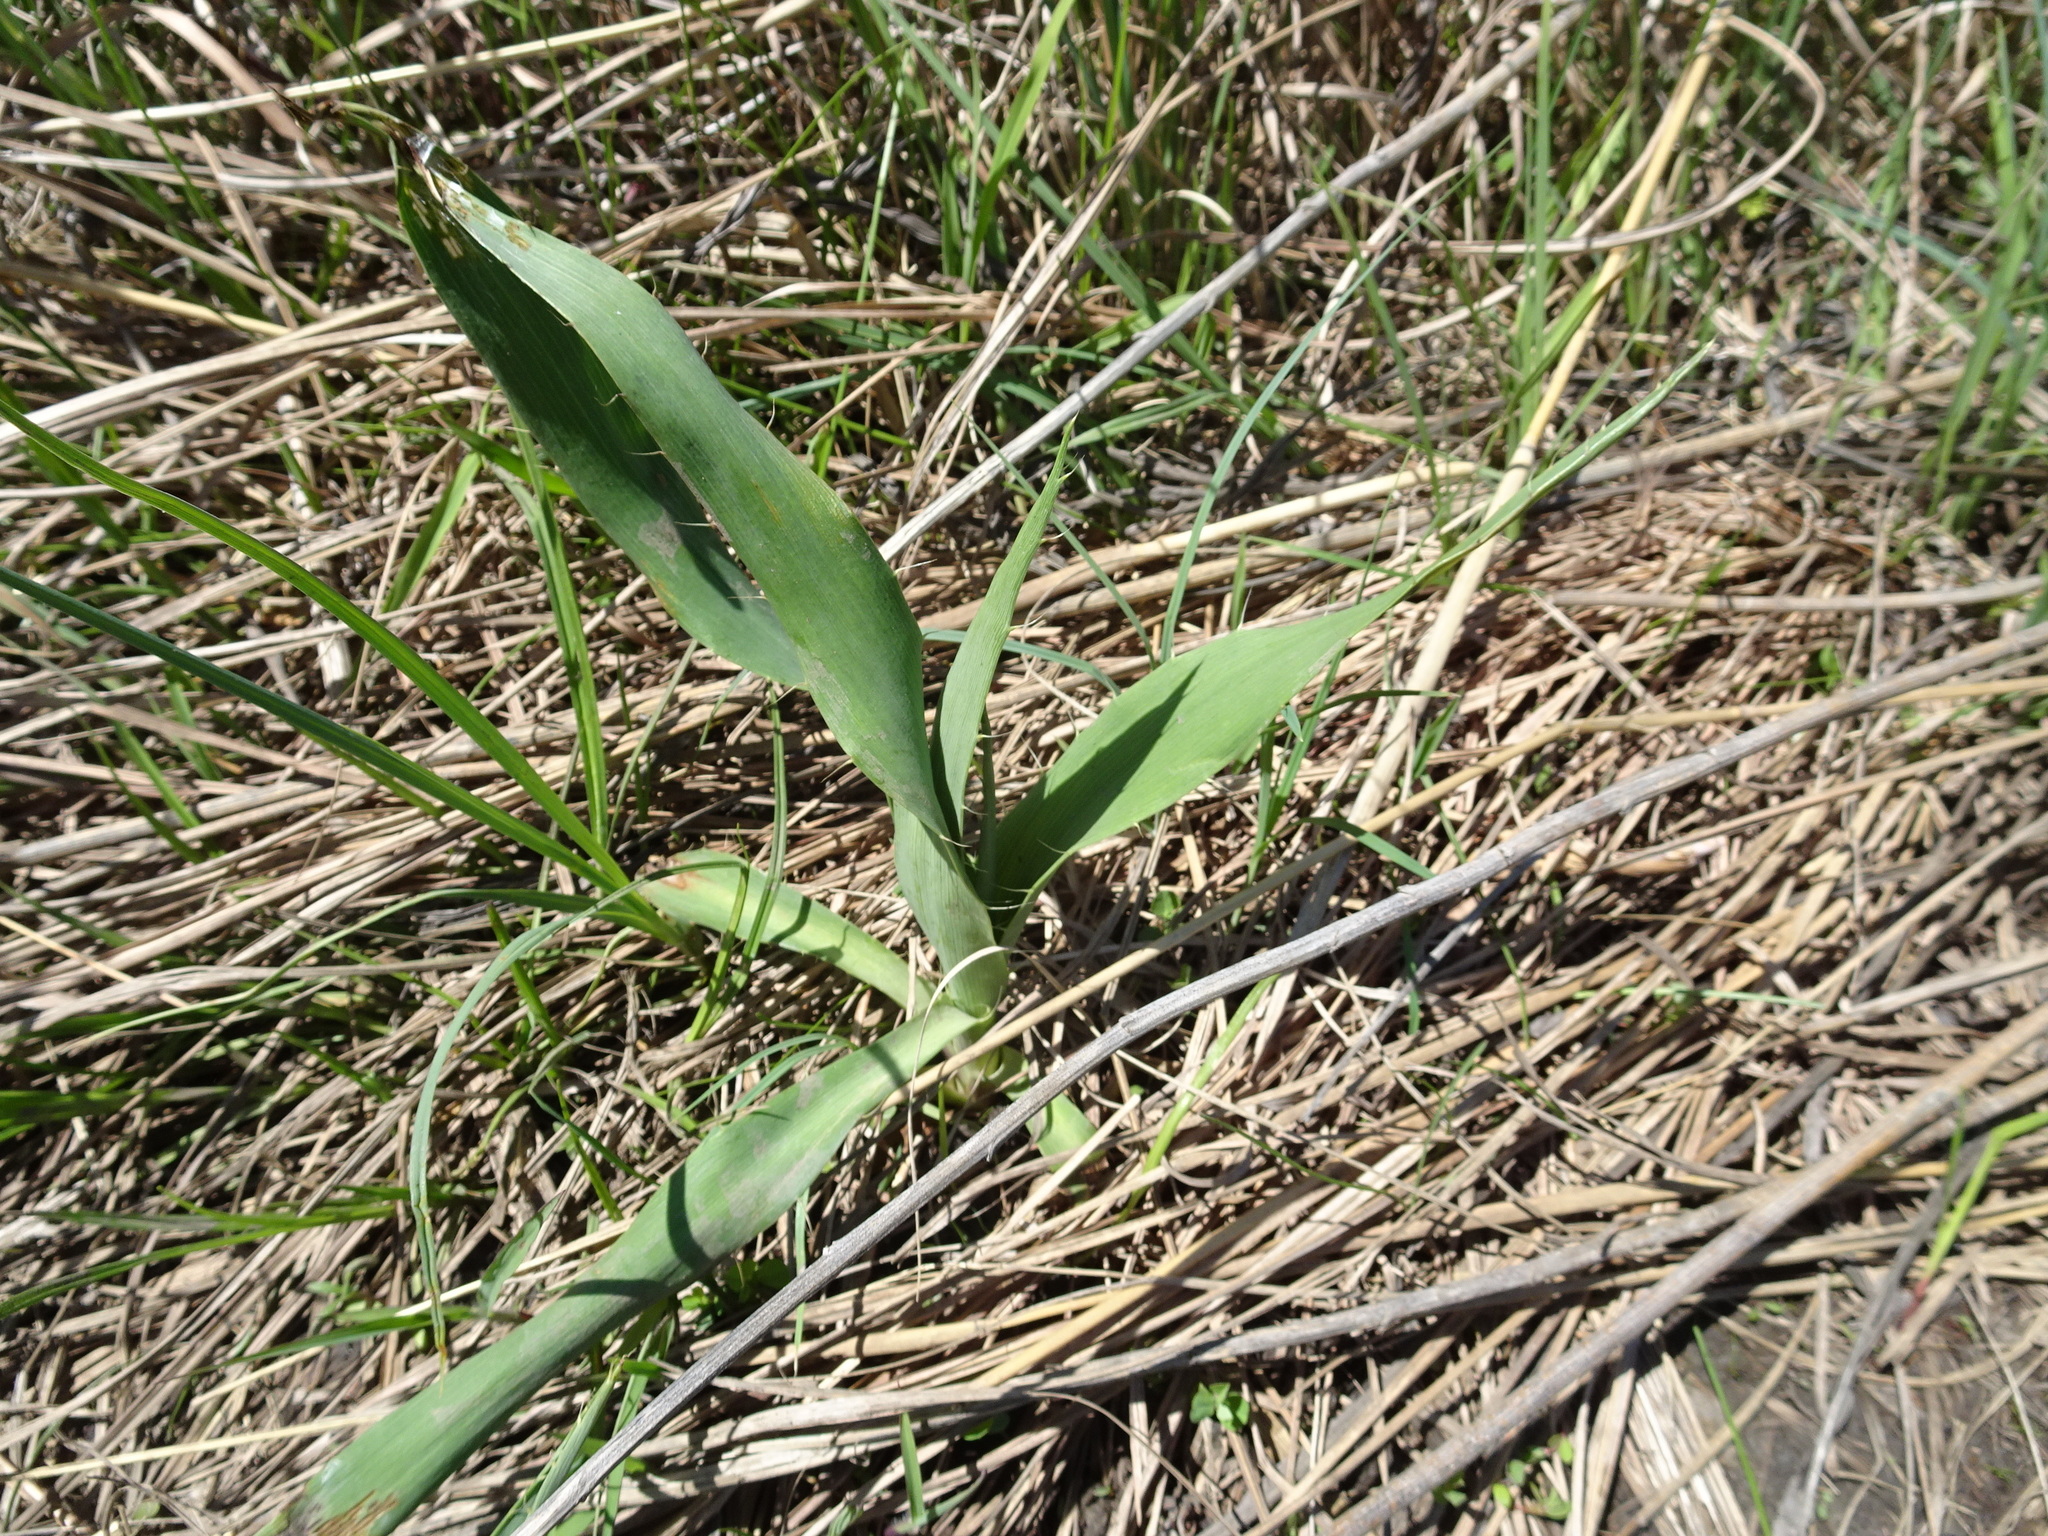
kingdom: Plantae
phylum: Tracheophyta
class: Magnoliopsida
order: Apiales
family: Apiaceae
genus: Eryngium
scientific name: Eryngium yuccifolium
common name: Button eryngo
